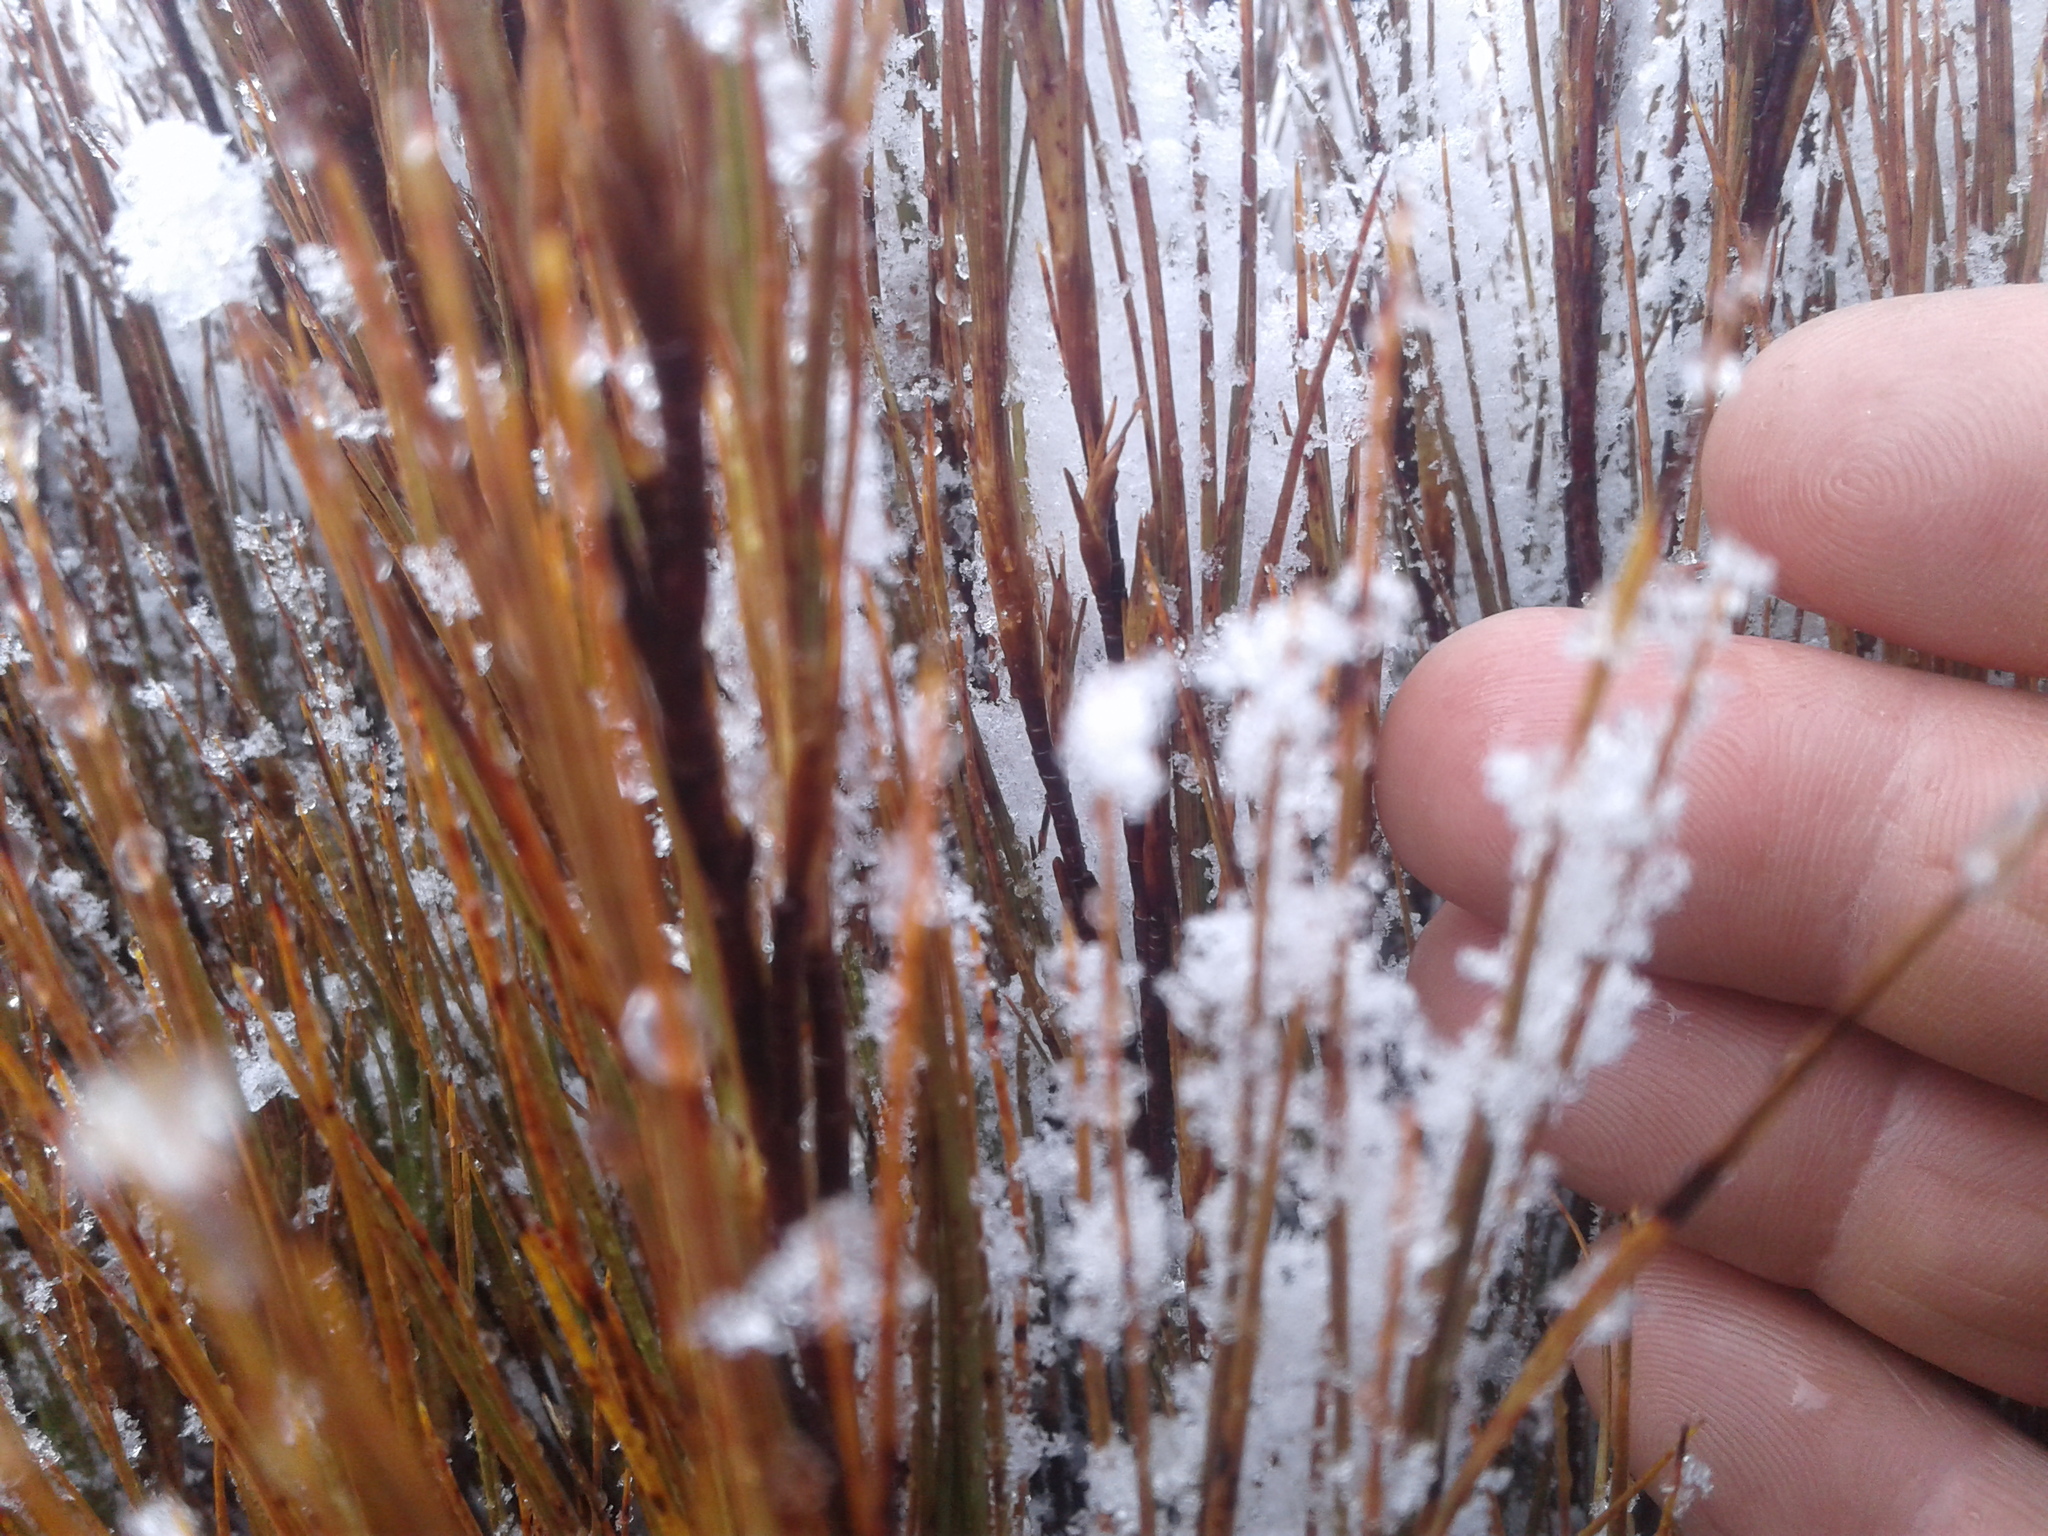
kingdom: Plantae
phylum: Tracheophyta
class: Magnoliopsida
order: Ericales
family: Ericaceae
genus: Dracophyllum
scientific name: Dracophyllum longifolium
